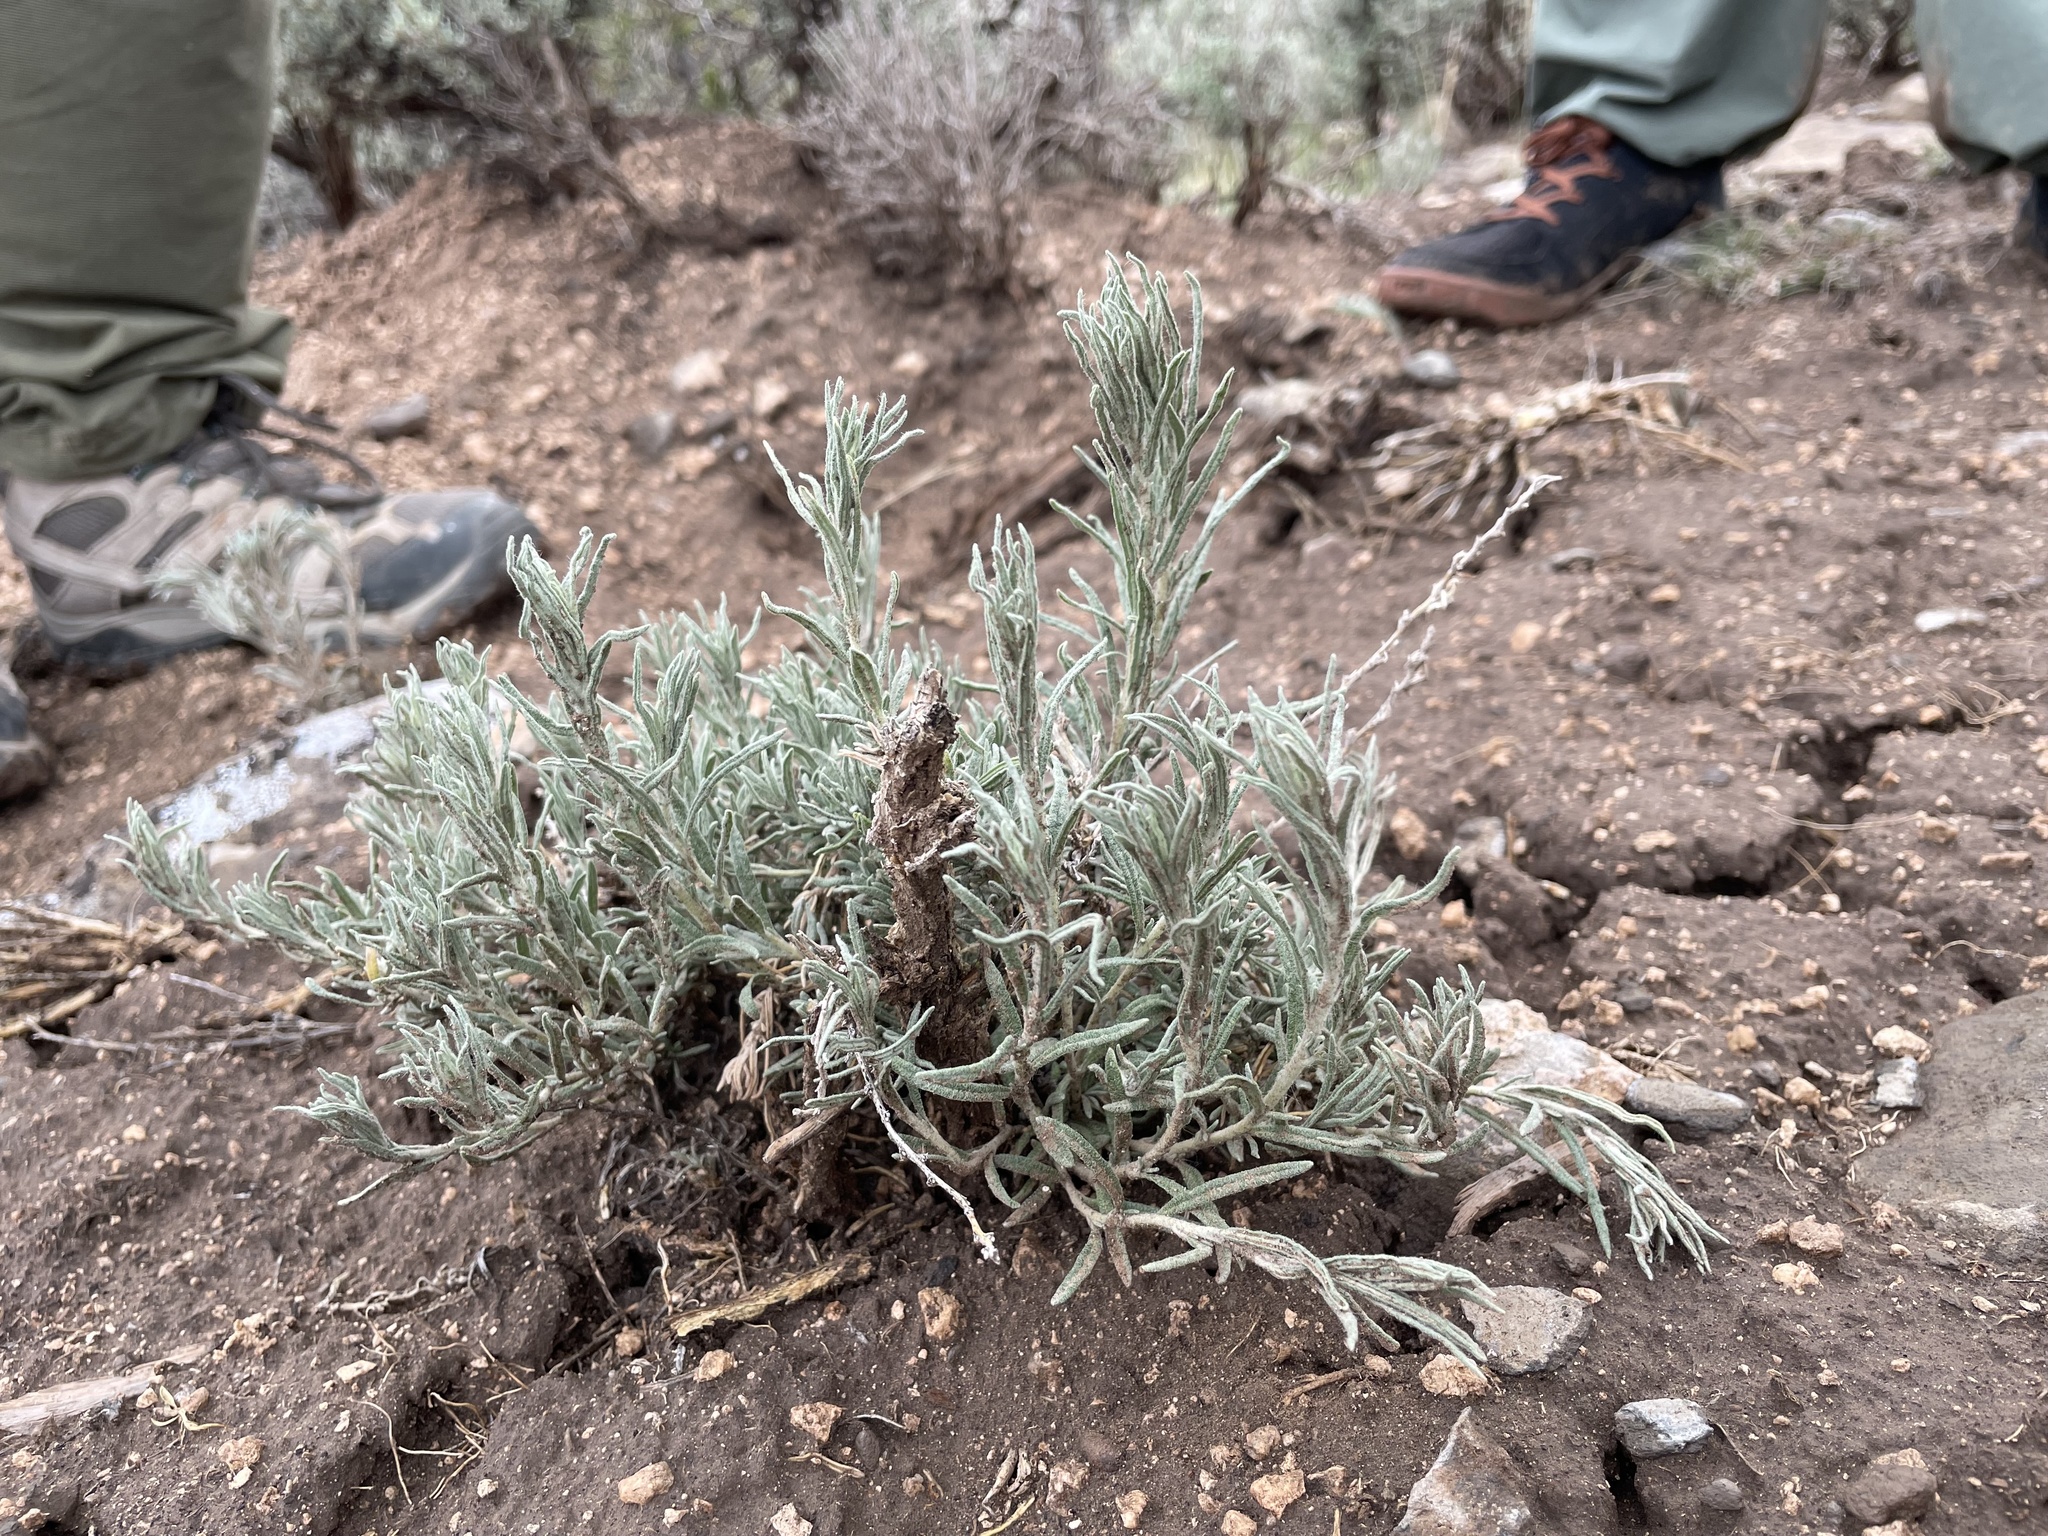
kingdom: Plantae
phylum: Tracheophyta
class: Magnoliopsida
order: Caryophyllales
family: Amaranthaceae
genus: Krascheninnikovia
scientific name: Krascheninnikovia lanata
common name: Winterfat
